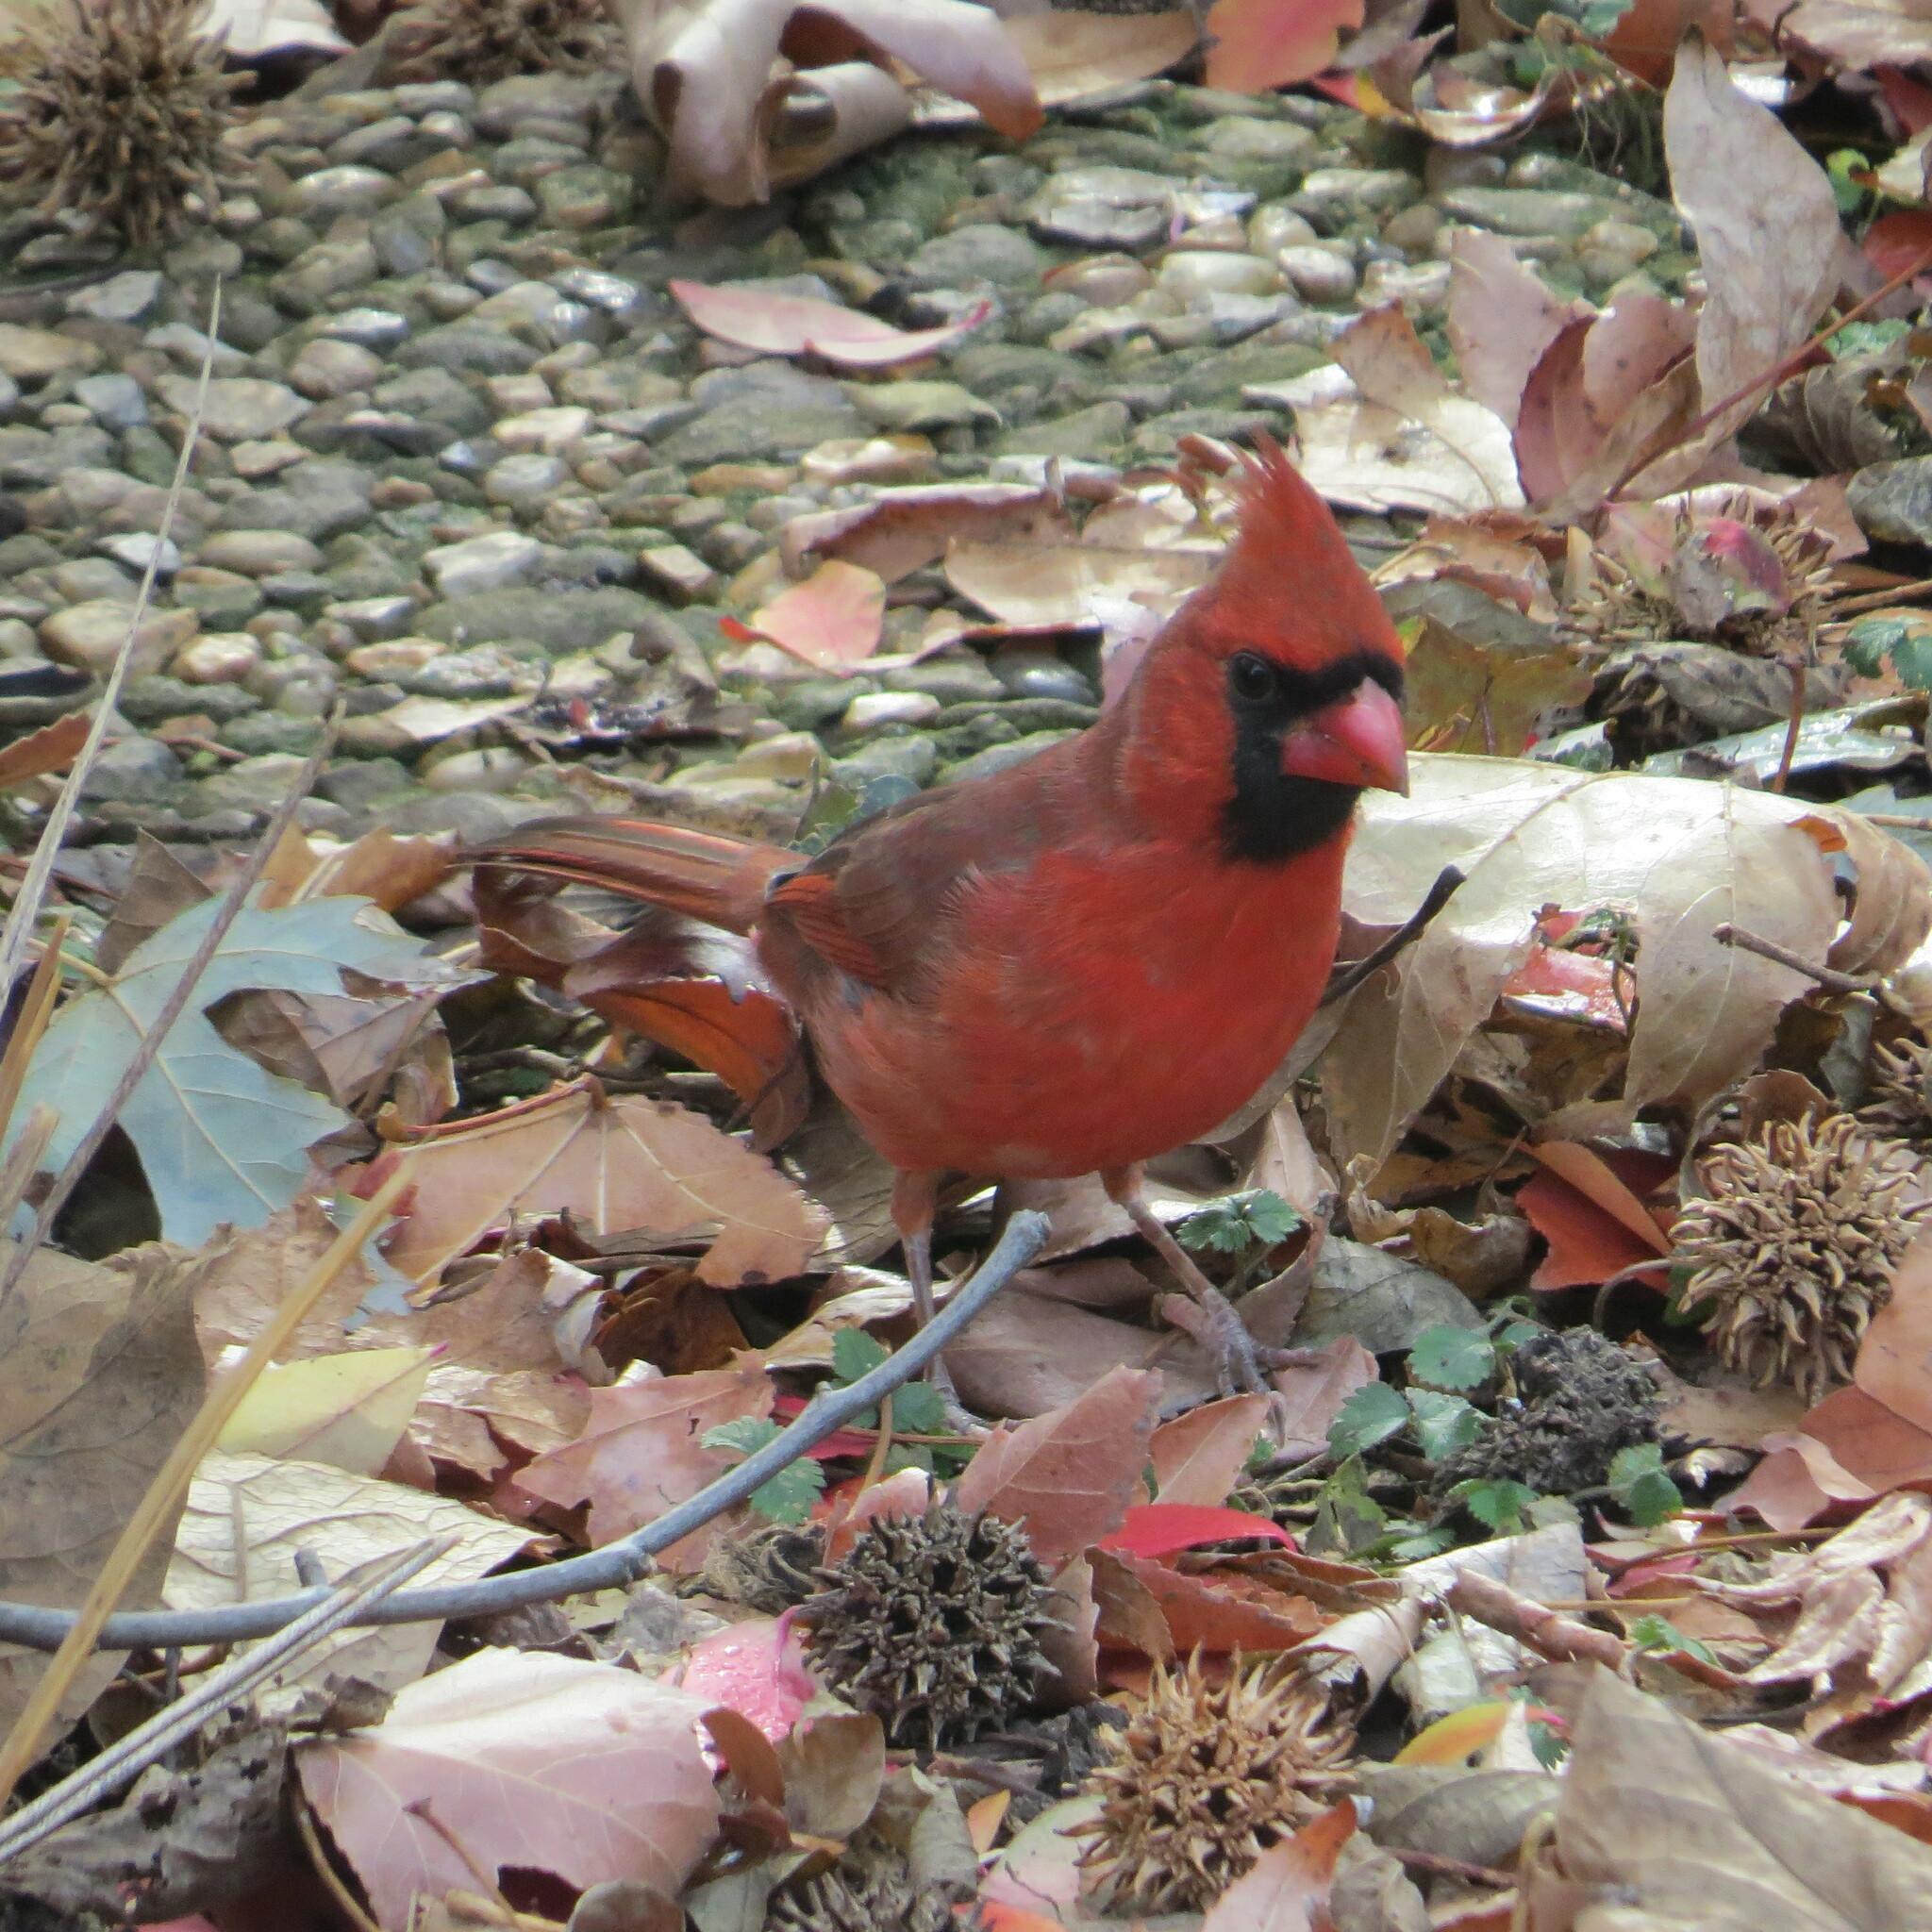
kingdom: Animalia
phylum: Chordata
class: Aves
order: Passeriformes
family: Cardinalidae
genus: Cardinalis
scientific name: Cardinalis cardinalis
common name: Northern cardinal
